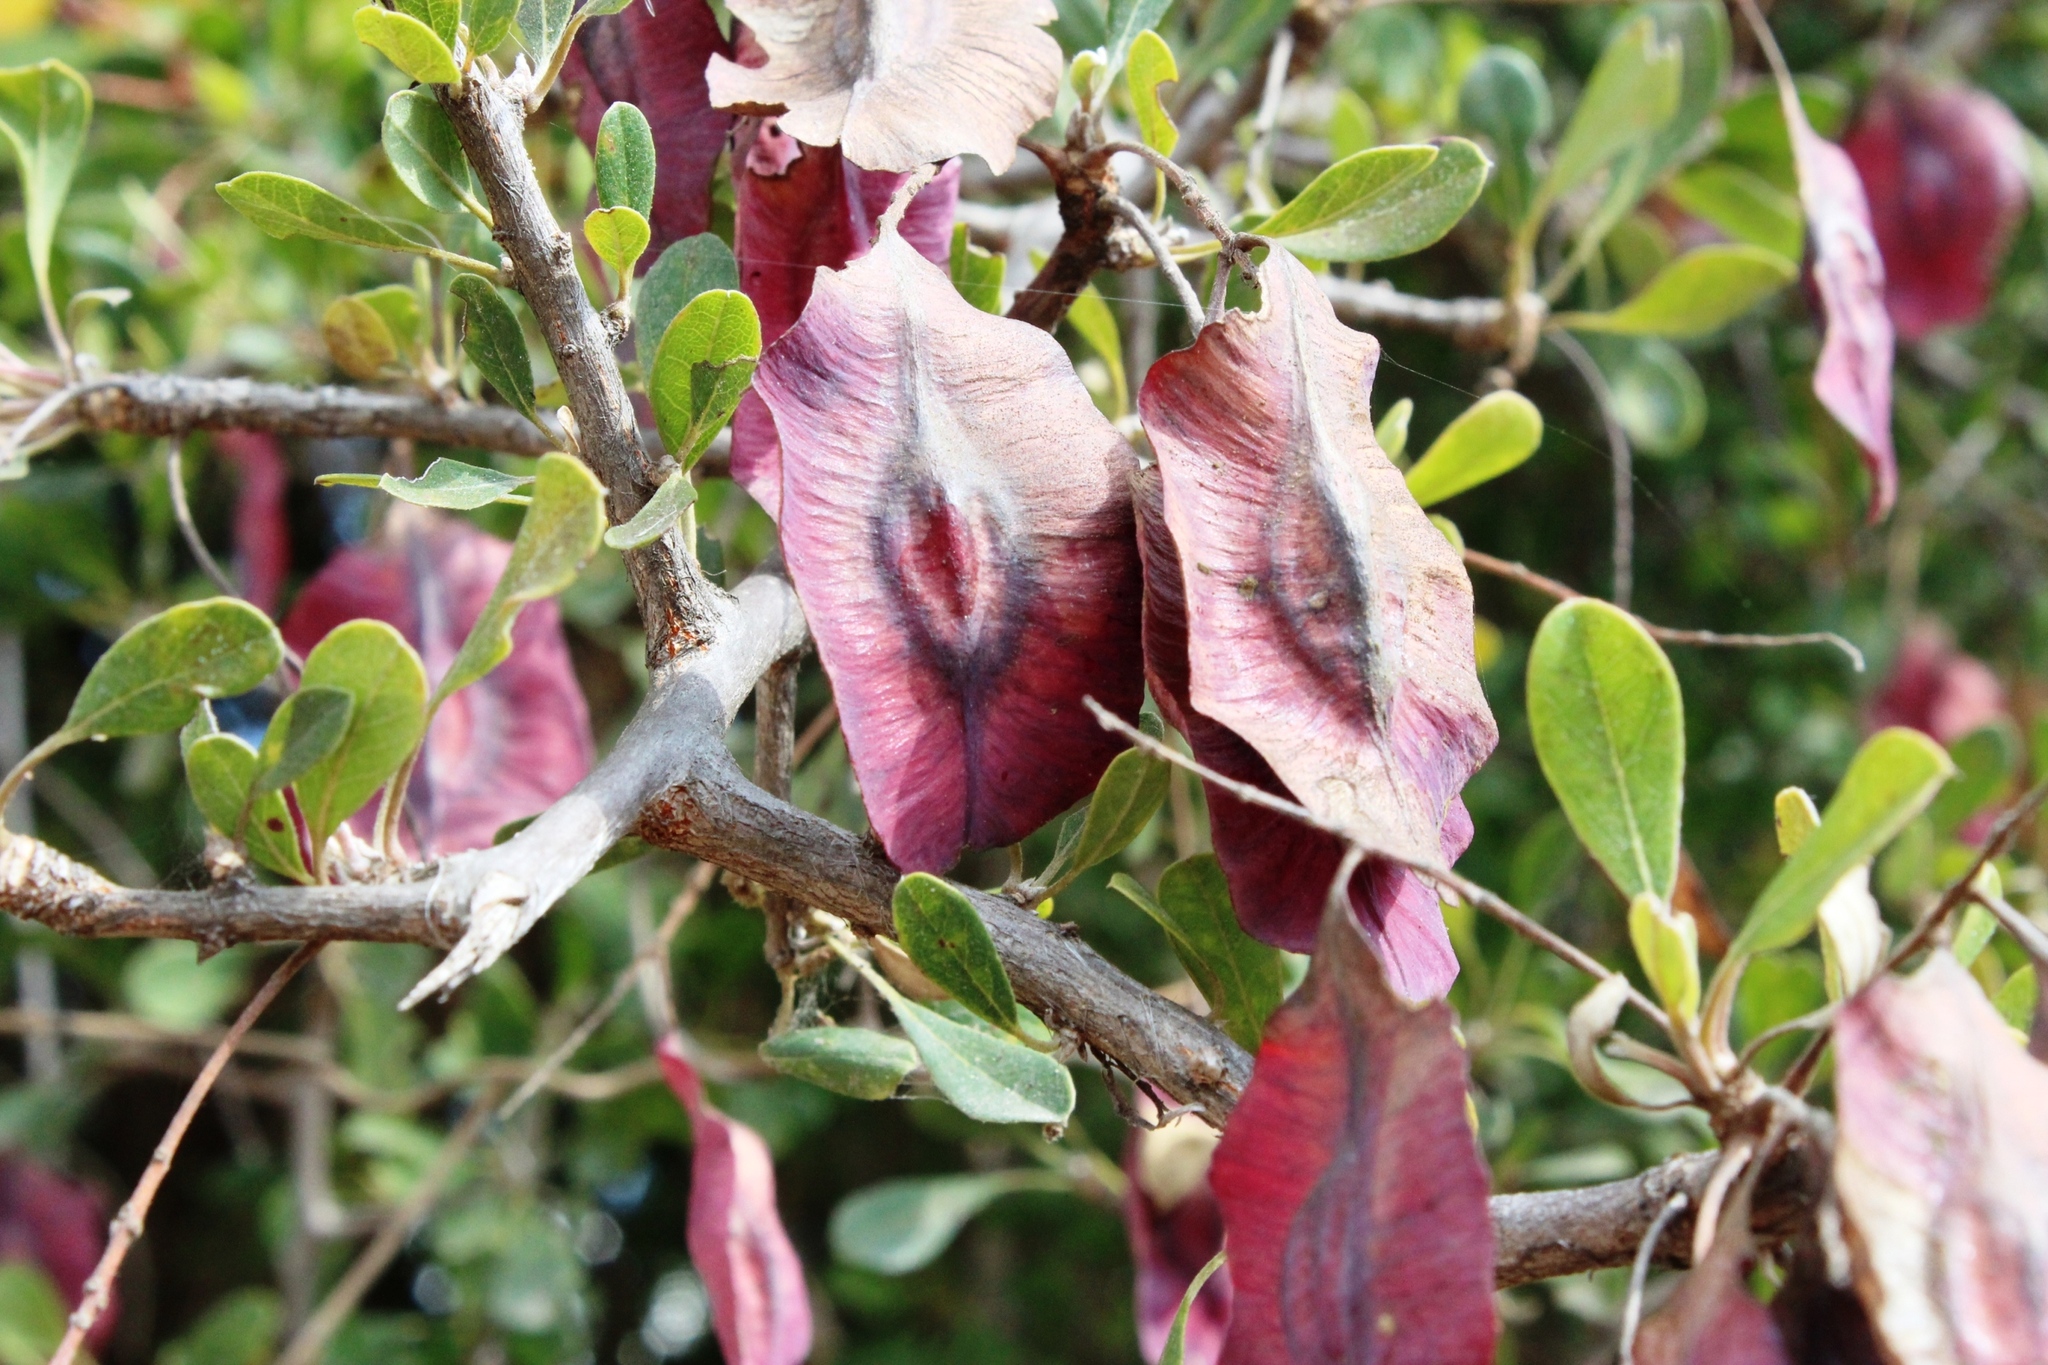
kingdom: Plantae
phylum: Tracheophyta
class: Magnoliopsida
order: Myrtales
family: Combretaceae
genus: Terminalia
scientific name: Terminalia prunioides
